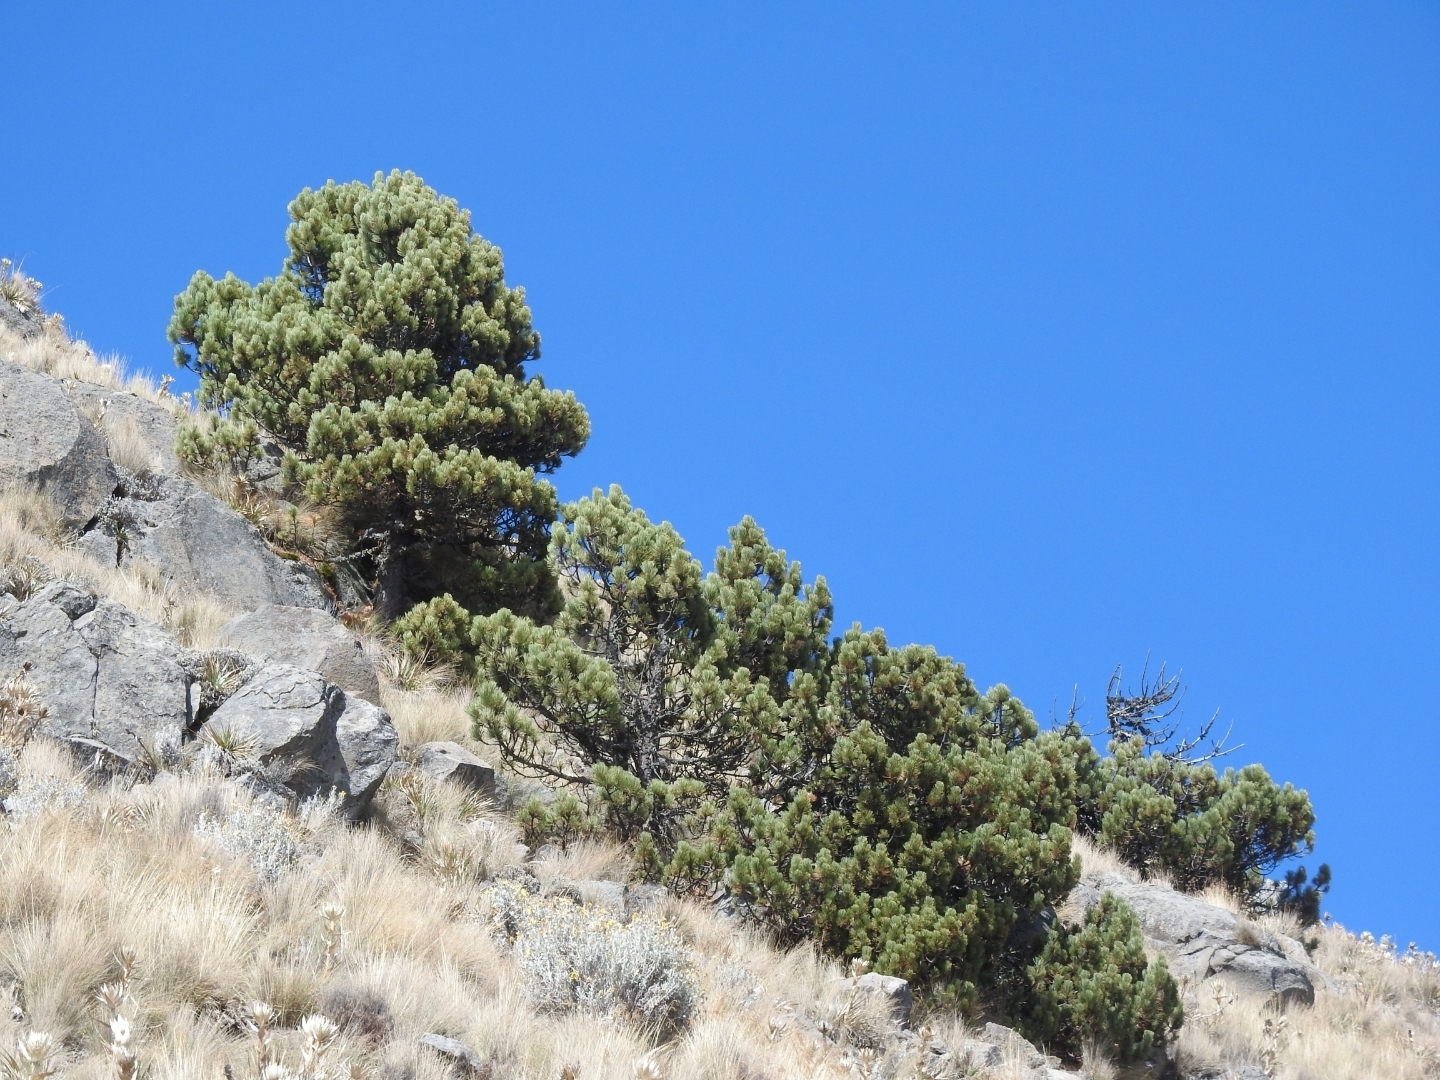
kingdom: Plantae
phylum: Tracheophyta
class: Pinopsida
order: Pinales
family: Pinaceae
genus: Pinus
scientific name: Pinus hartwegii
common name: Hartweg's pine
